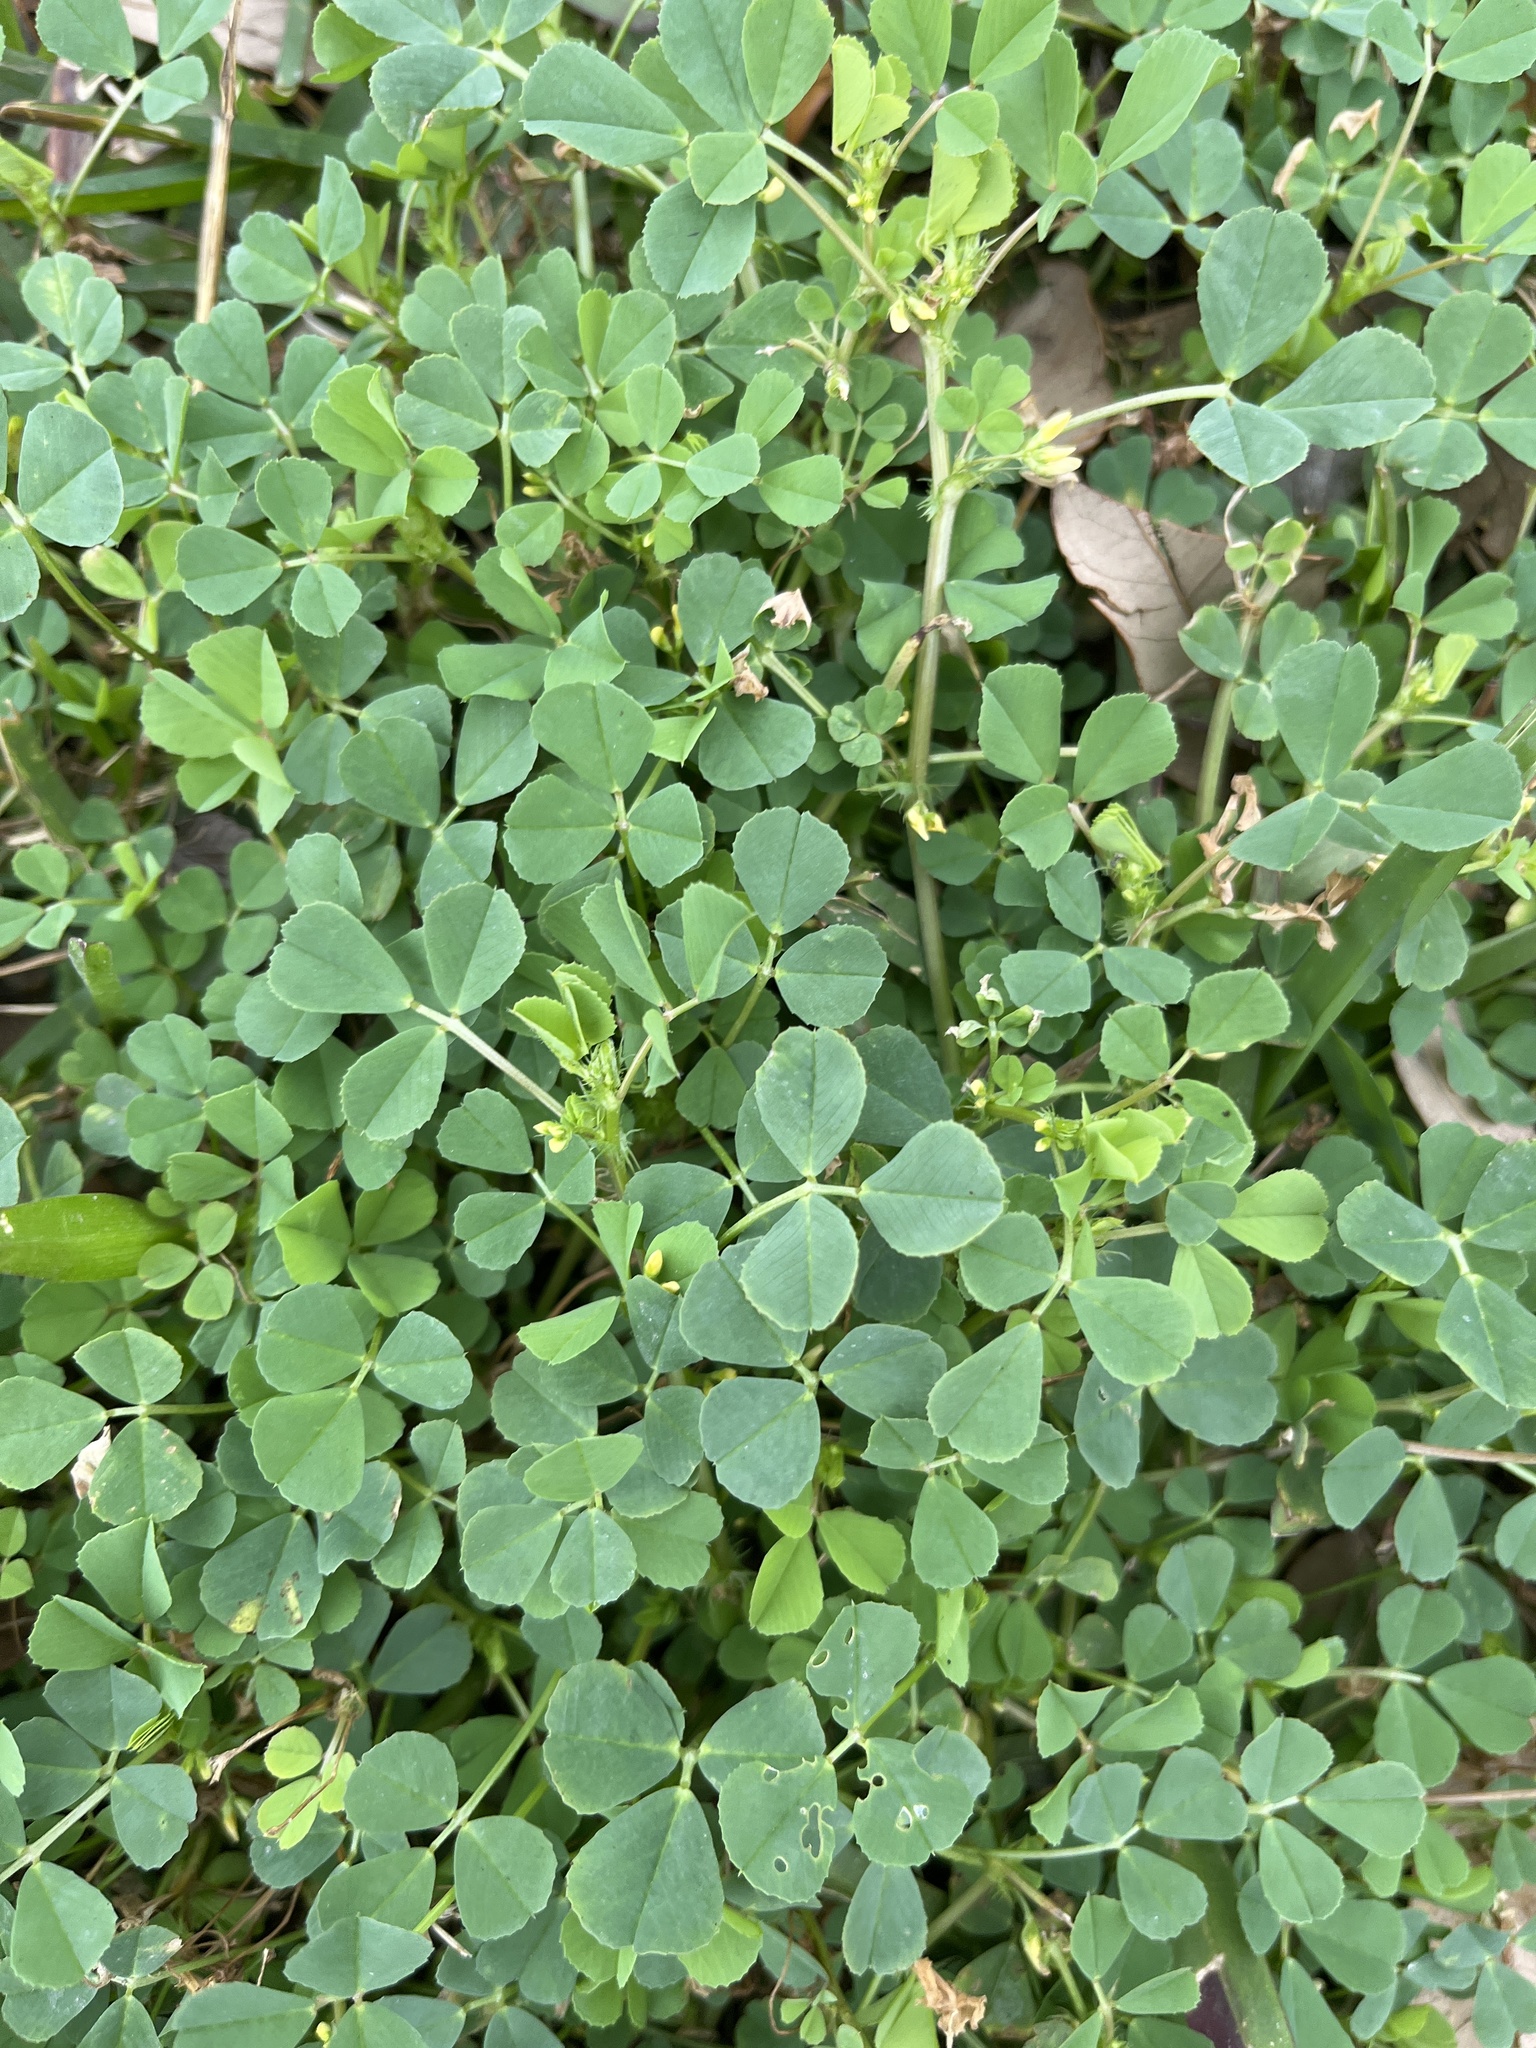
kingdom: Plantae
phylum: Tracheophyta
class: Magnoliopsida
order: Fabales
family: Fabaceae
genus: Medicago
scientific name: Medicago polymorpha
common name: Burclover
